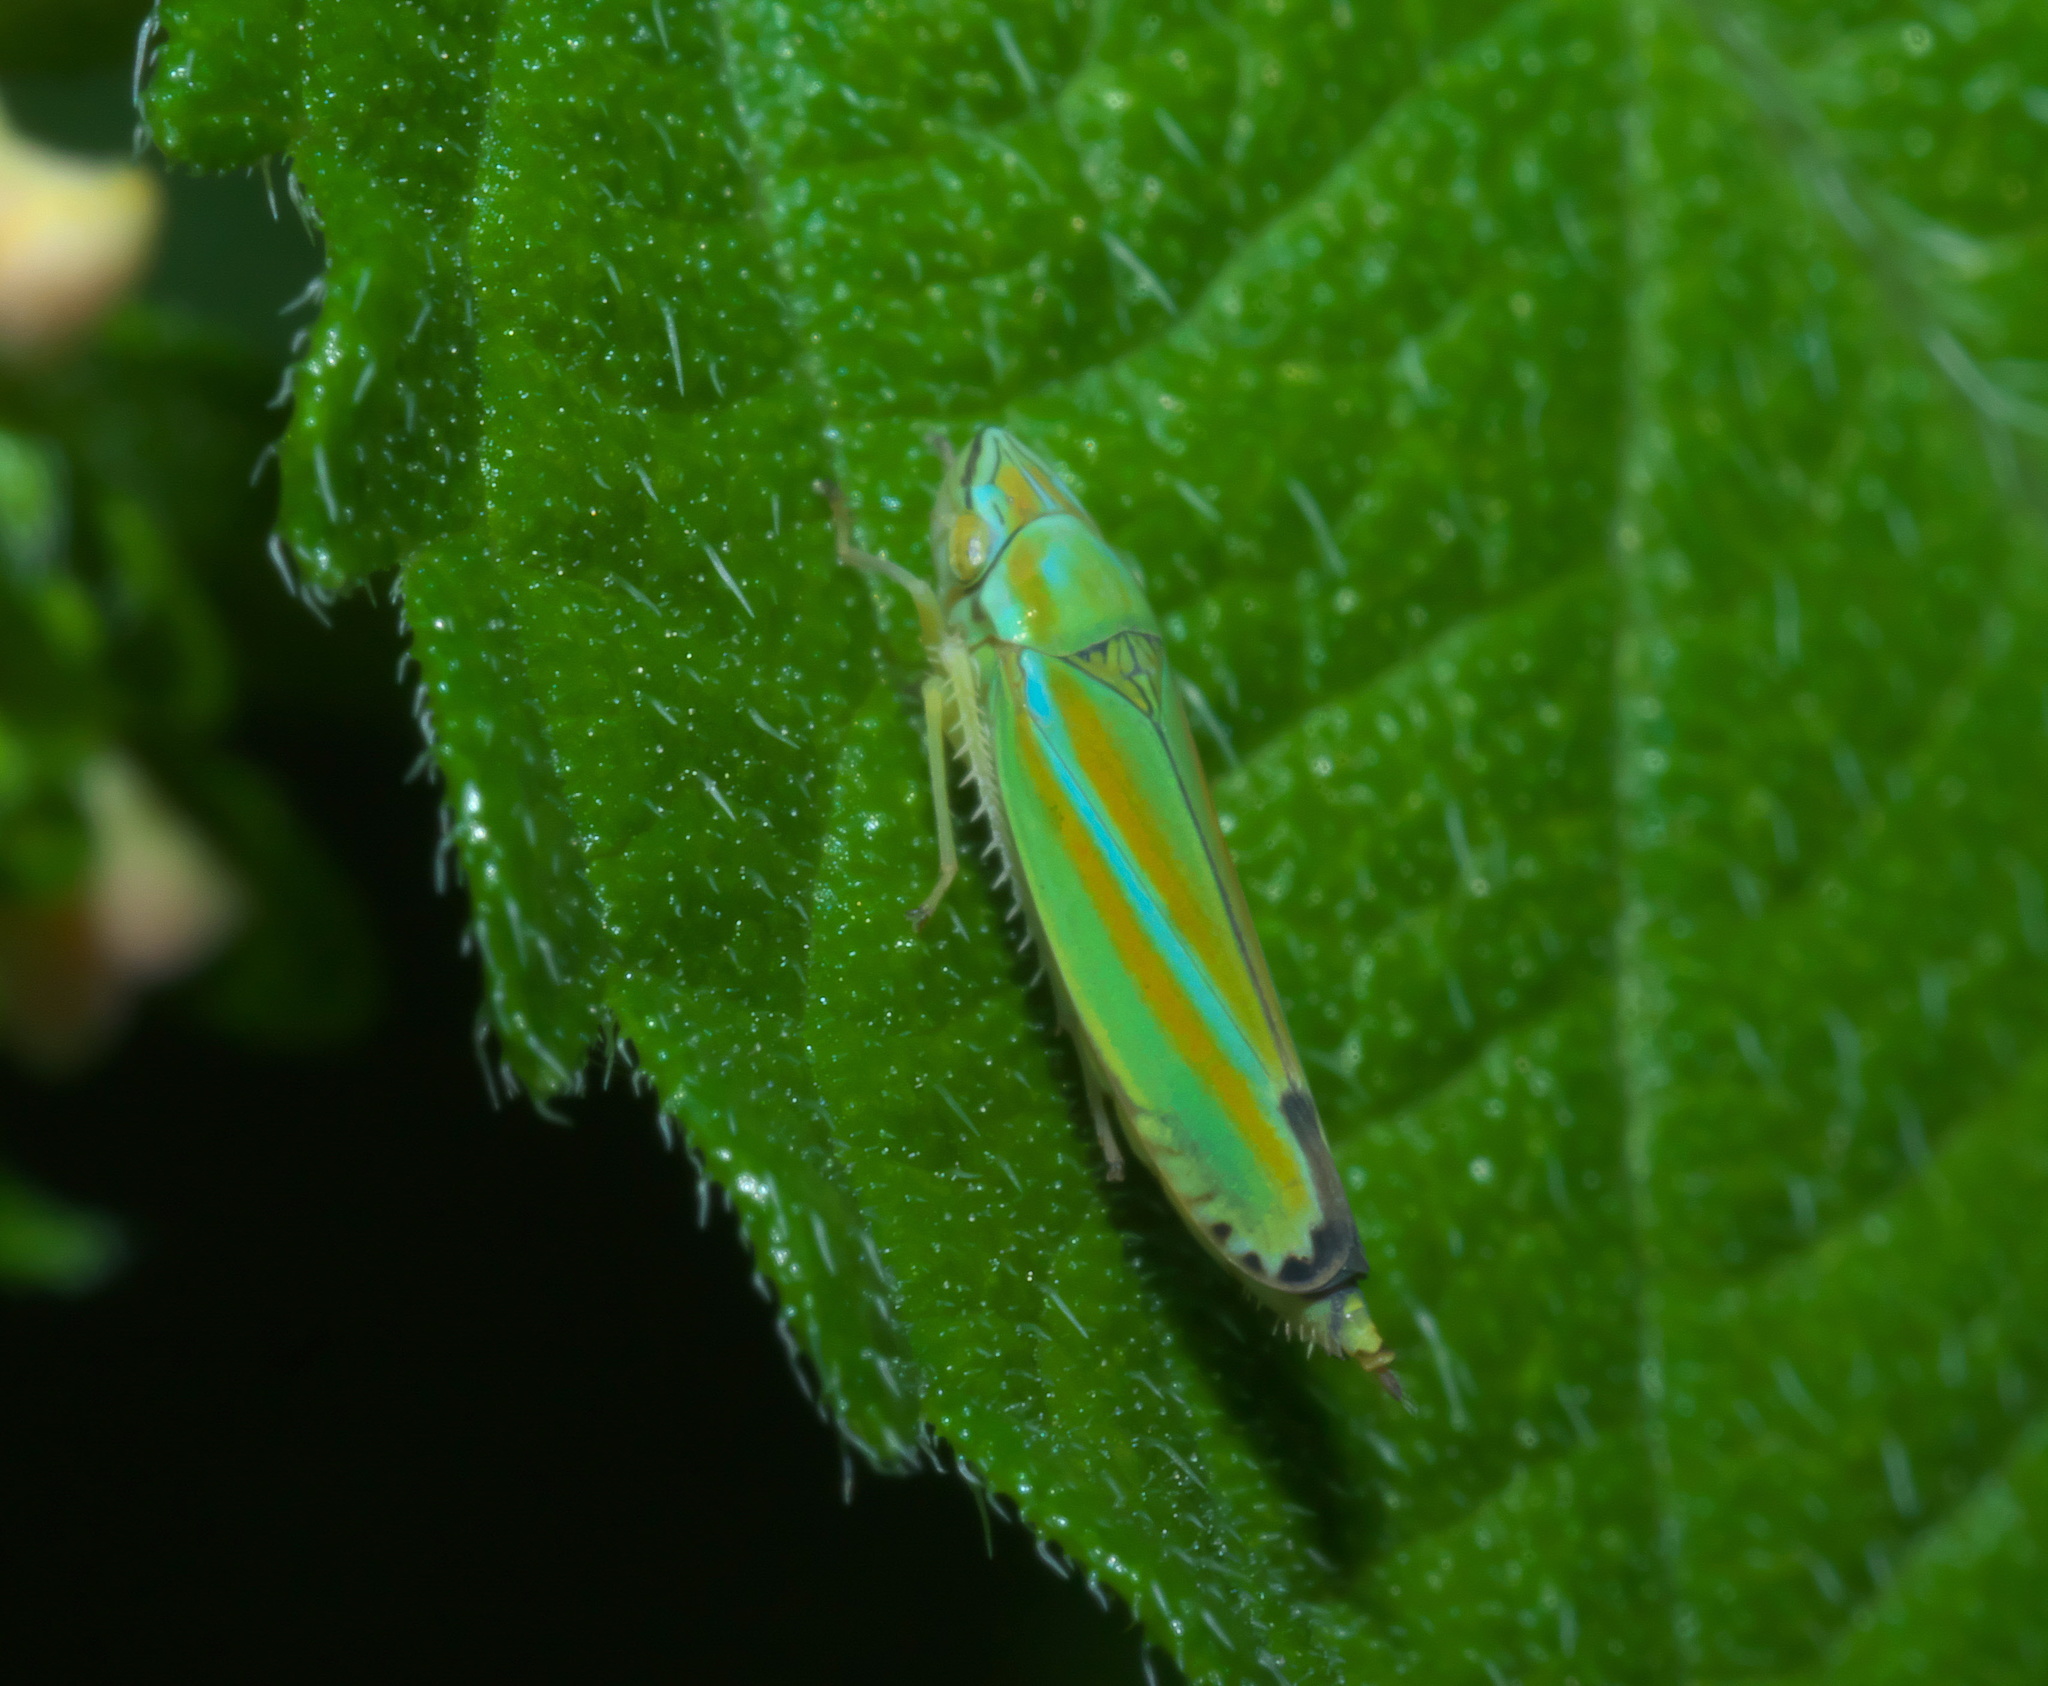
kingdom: Animalia
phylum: Arthropoda
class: Insecta
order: Hemiptera
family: Cicadellidae
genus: Graphocephala
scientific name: Graphocephala versuta
